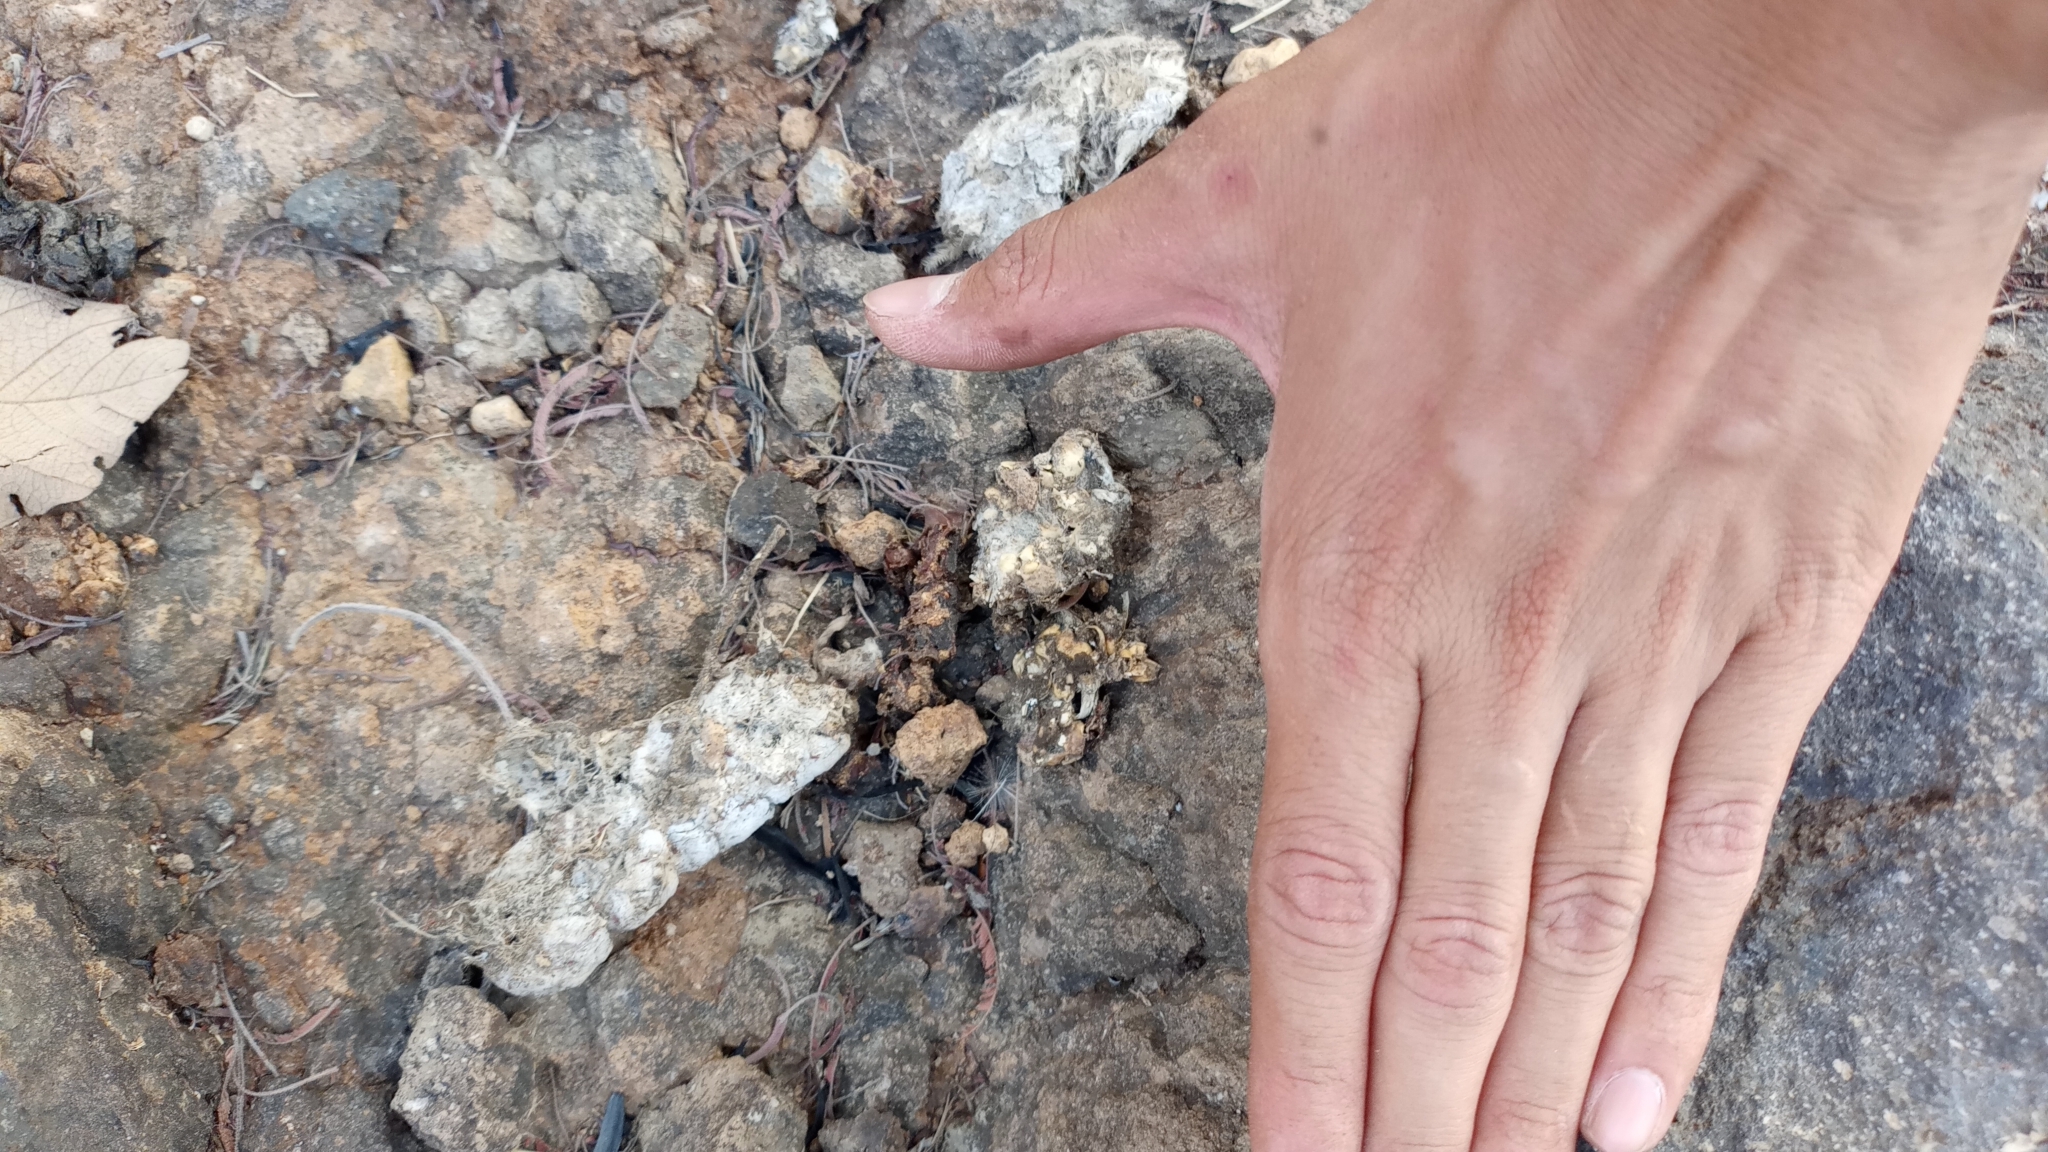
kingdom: Animalia
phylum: Chordata
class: Mammalia
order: Carnivora
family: Felidae
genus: Lynx
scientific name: Lynx rufus
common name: Bobcat
